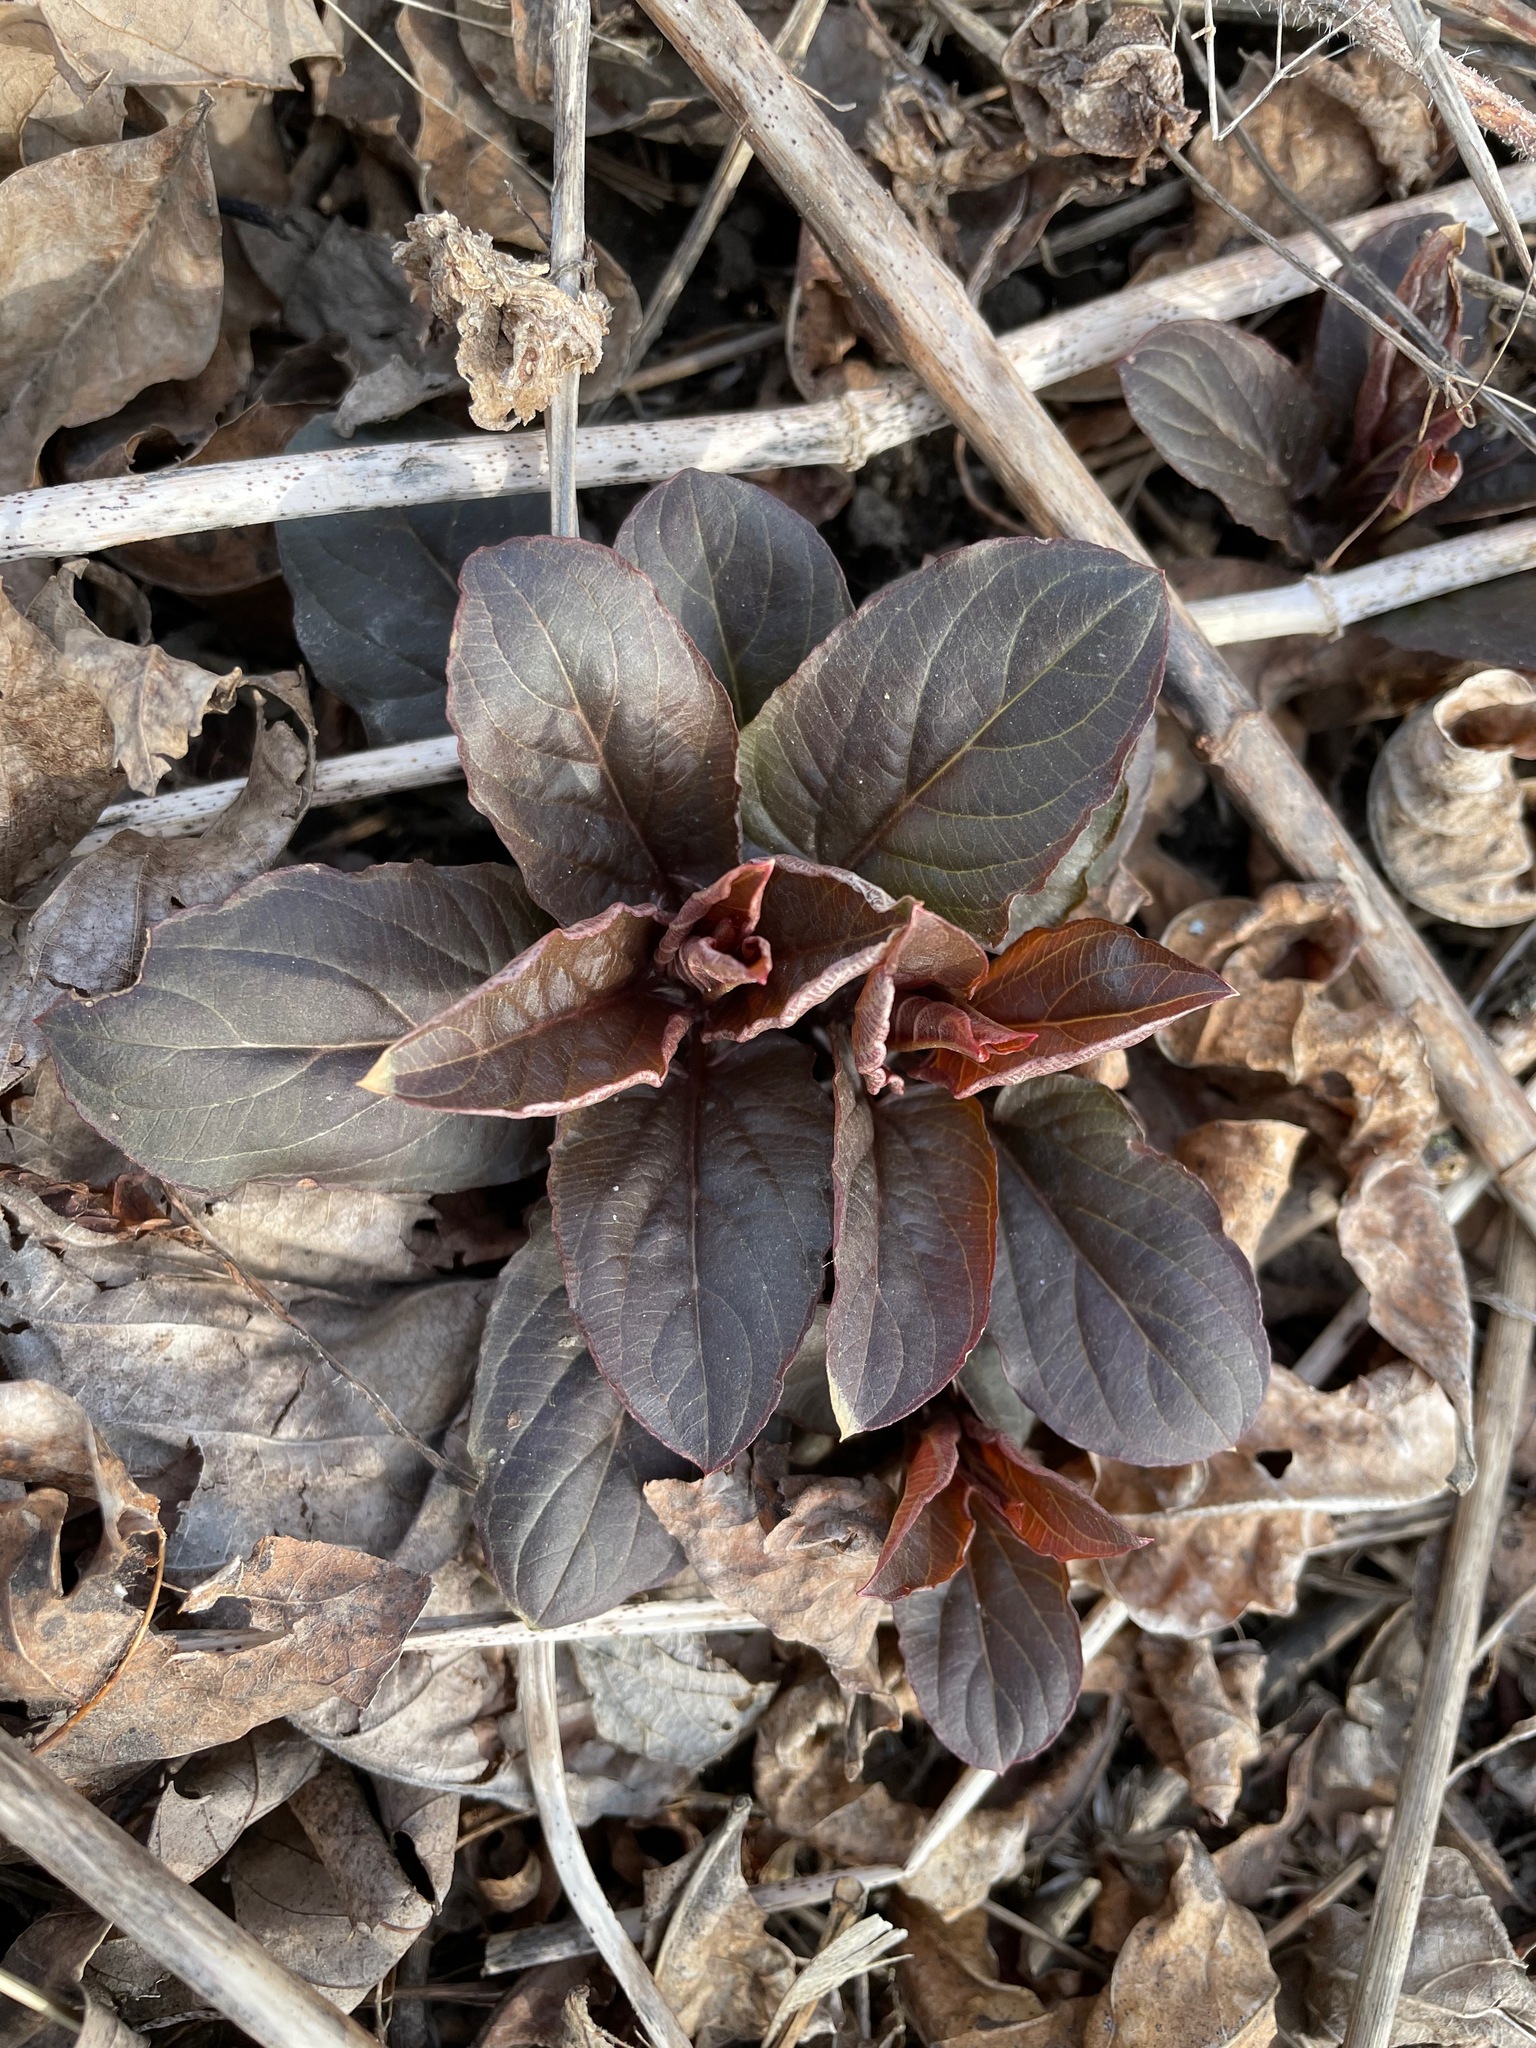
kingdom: Plantae
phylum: Tracheophyta
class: Magnoliopsida
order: Ericales
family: Primulaceae
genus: Lysimachia
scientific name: Lysimachia ciliata
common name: Fringed loosestrife
